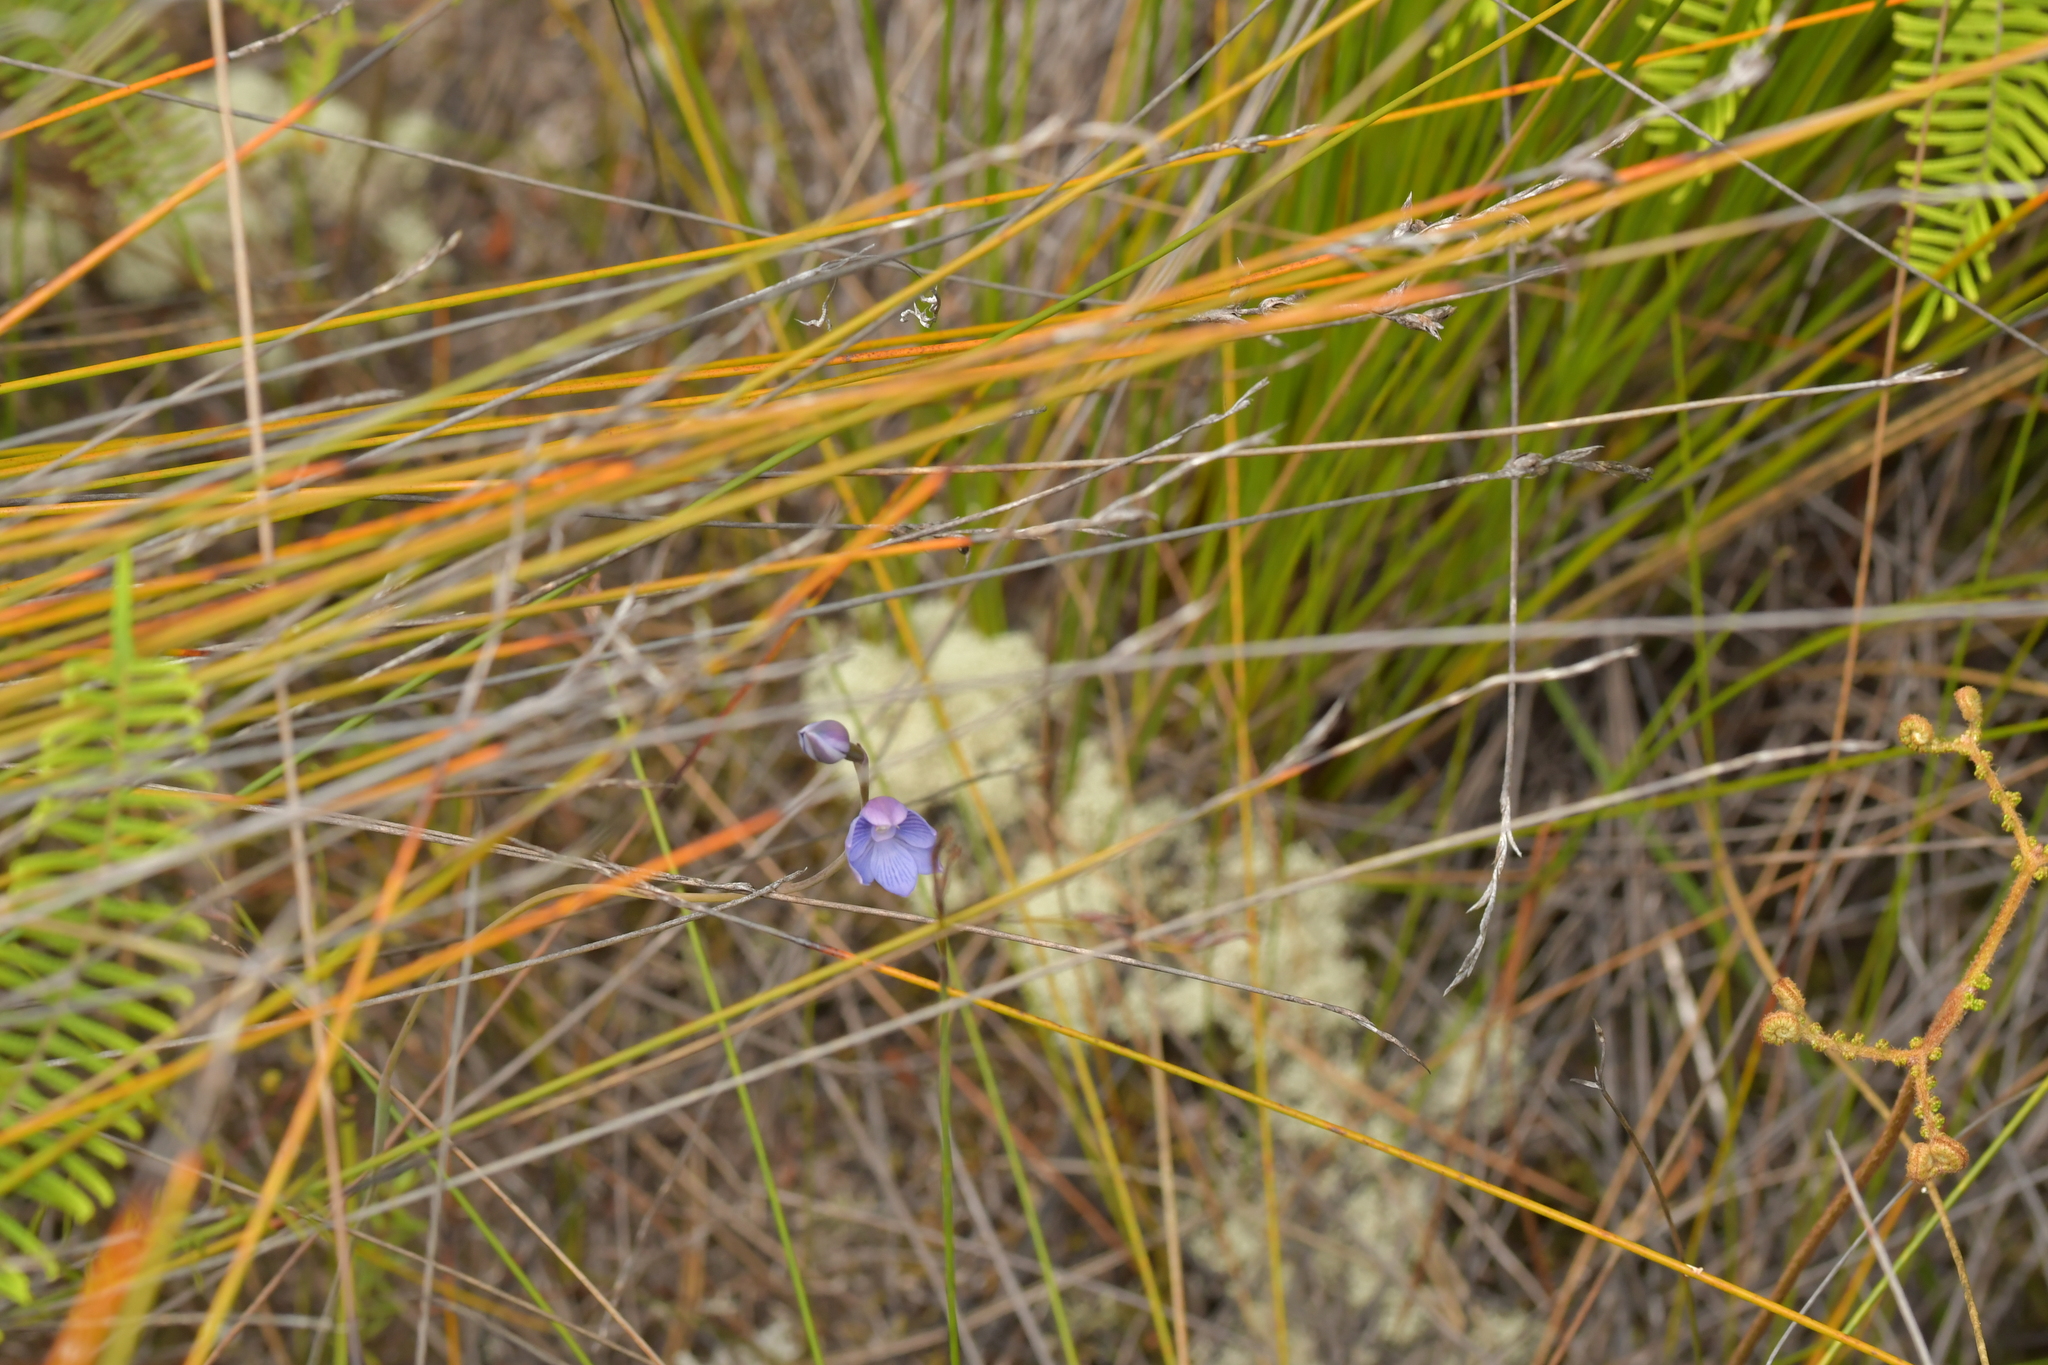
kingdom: Plantae
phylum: Tracheophyta
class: Liliopsida
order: Asparagales
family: Orchidaceae
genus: Thelymitra
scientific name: Thelymitra pulchella
